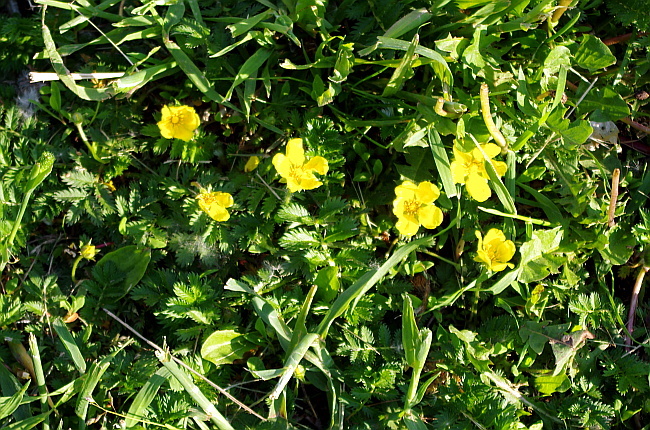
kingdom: Plantae
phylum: Tracheophyta
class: Magnoliopsida
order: Rosales
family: Rosaceae
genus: Argentina
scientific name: Argentina anserina
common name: Common silverweed
